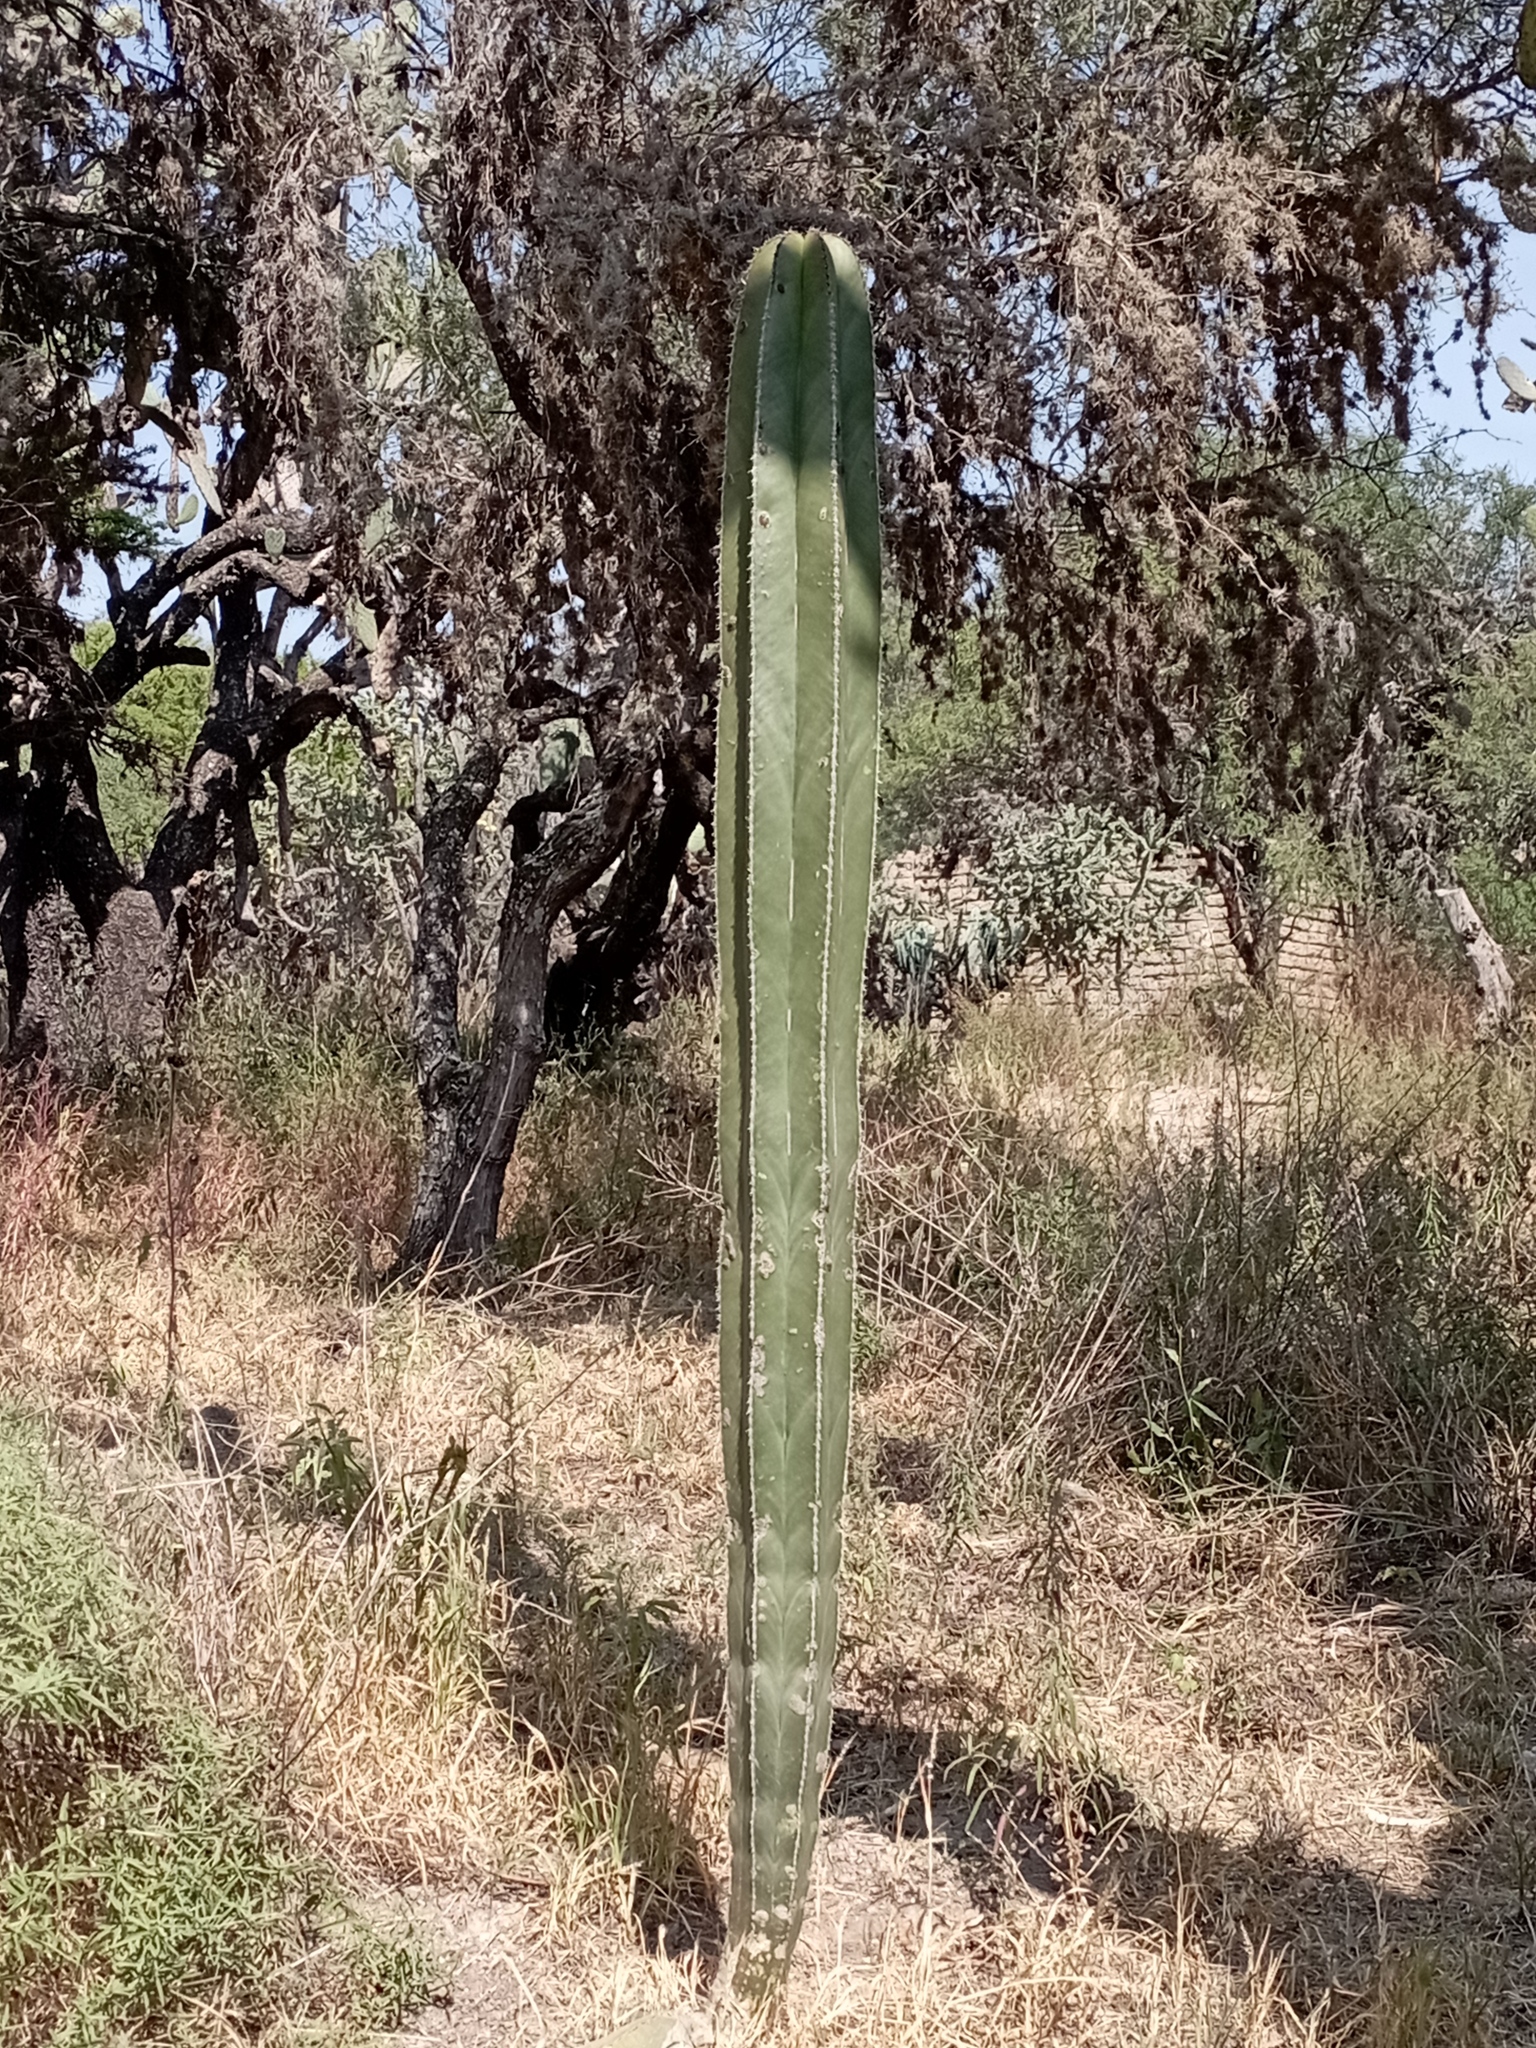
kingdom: Plantae
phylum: Tracheophyta
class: Magnoliopsida
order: Caryophyllales
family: Cactaceae
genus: Marginatocereus
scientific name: Marginatocereus marginatus
